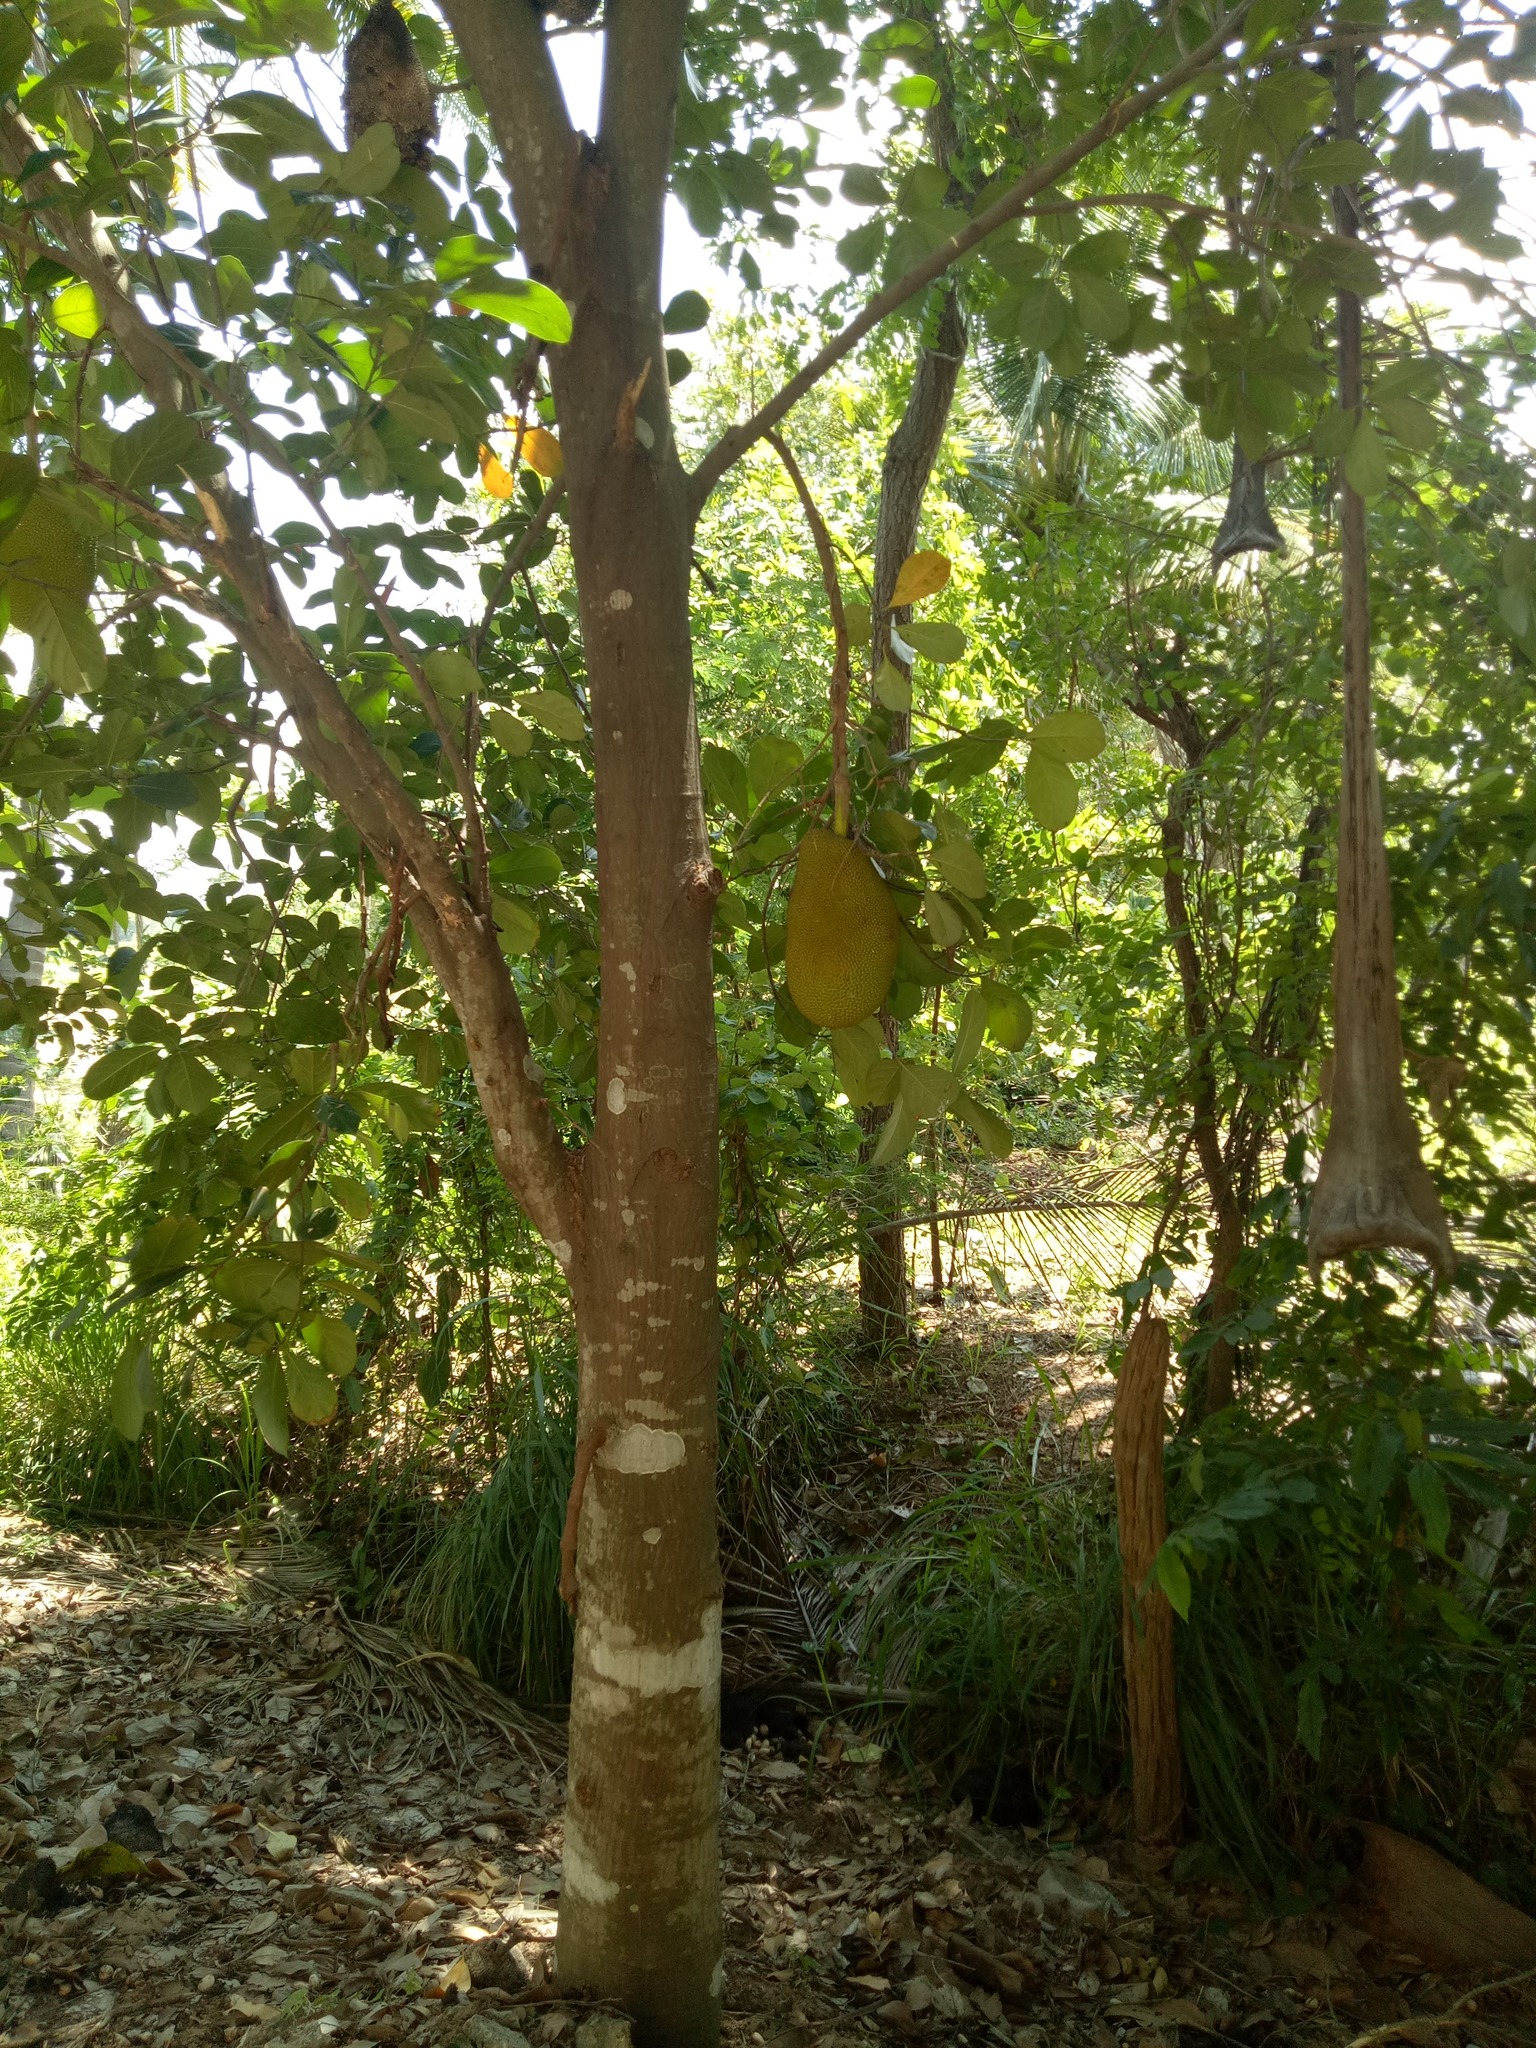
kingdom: Plantae
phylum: Tracheophyta
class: Magnoliopsida
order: Rosales
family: Moraceae
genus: Artocarpus
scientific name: Artocarpus heterophyllus
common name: Jackfruit
